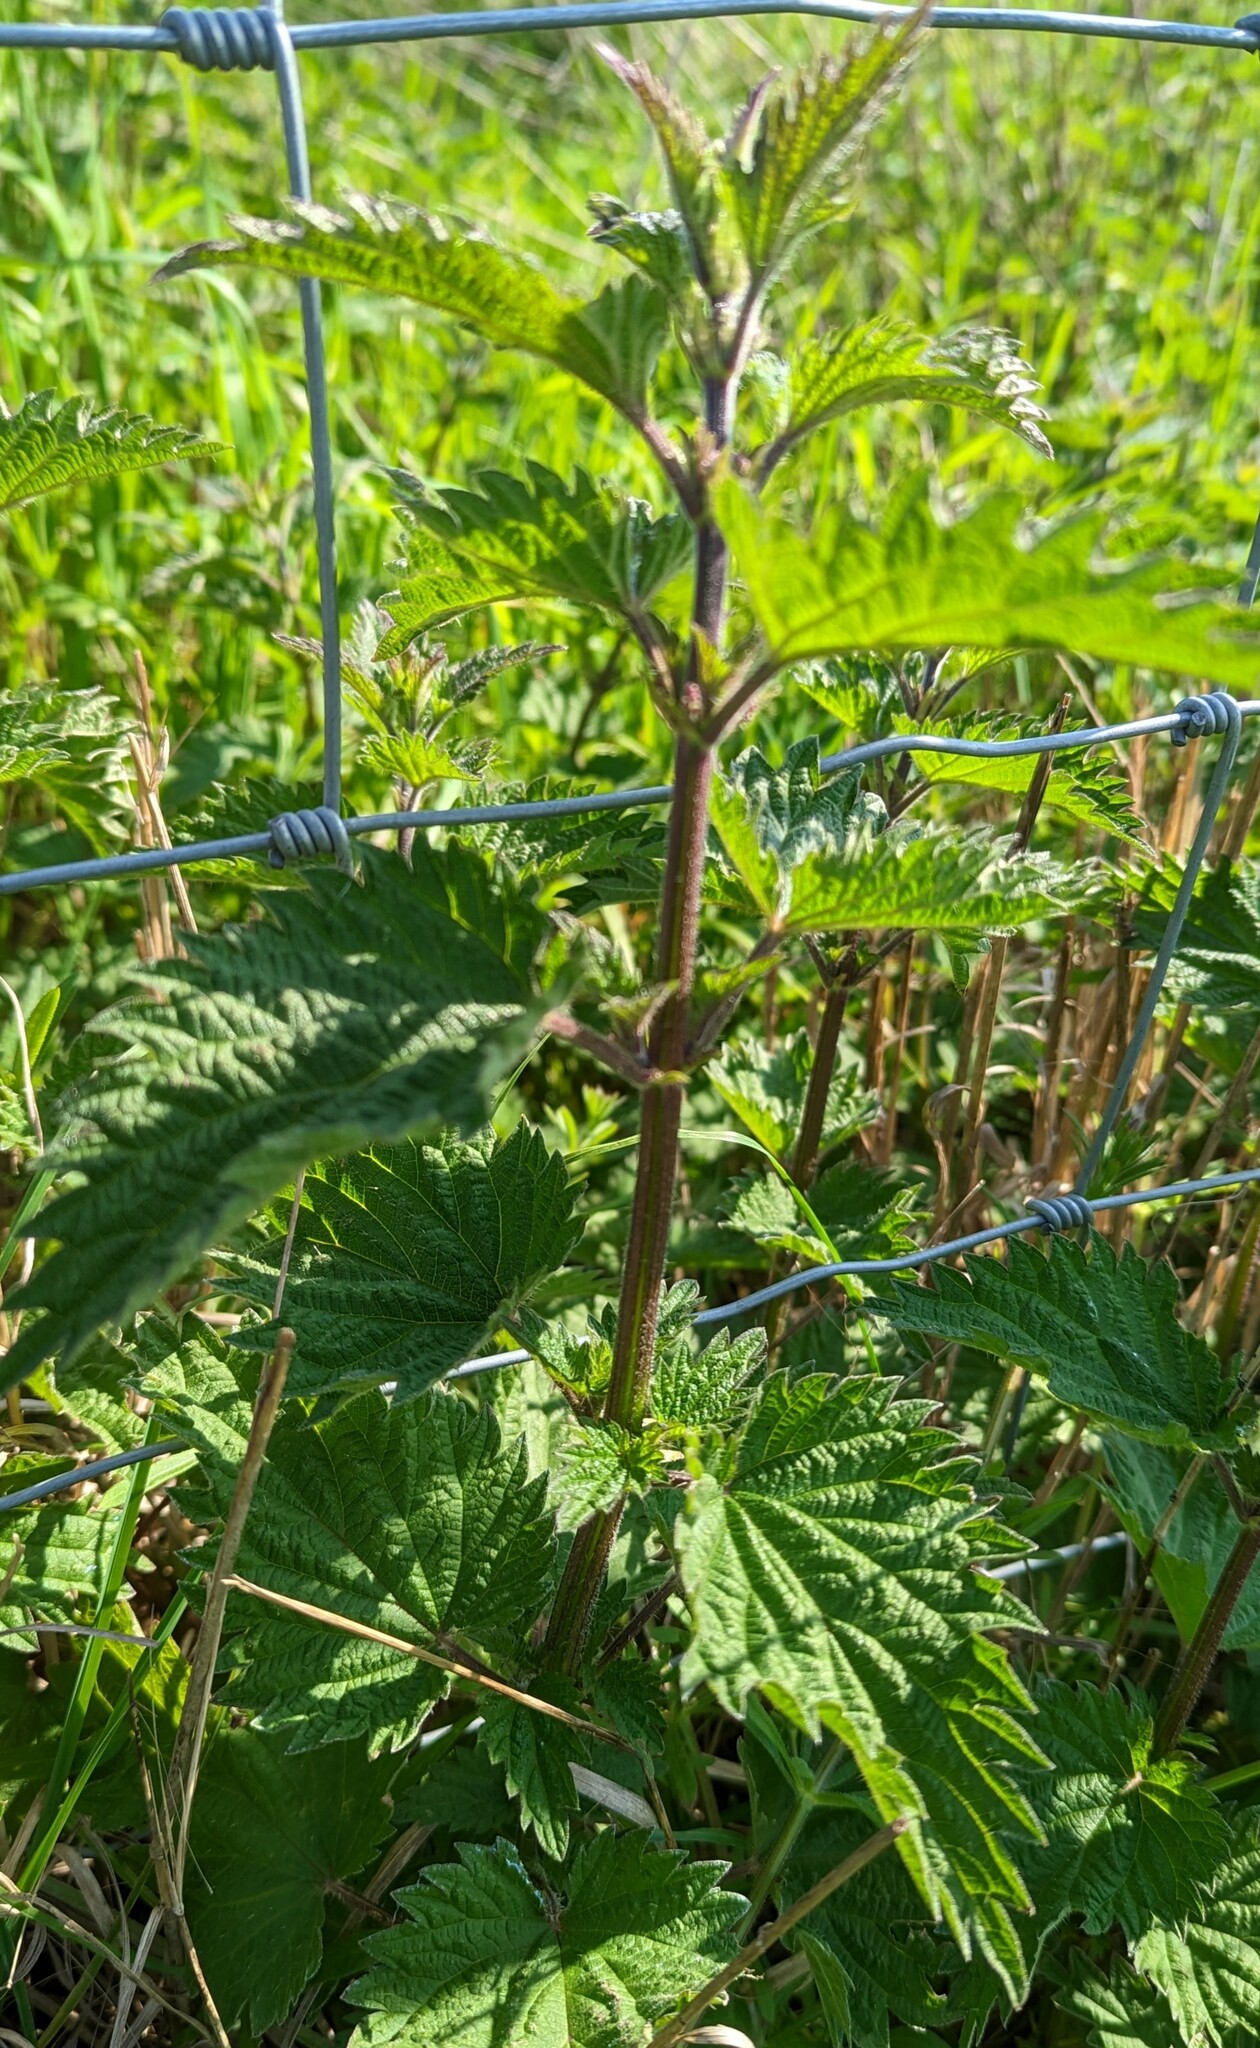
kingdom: Plantae
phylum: Tracheophyta
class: Magnoliopsida
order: Rosales
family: Urticaceae
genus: Urtica
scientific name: Urtica dioica
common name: Common nettle
